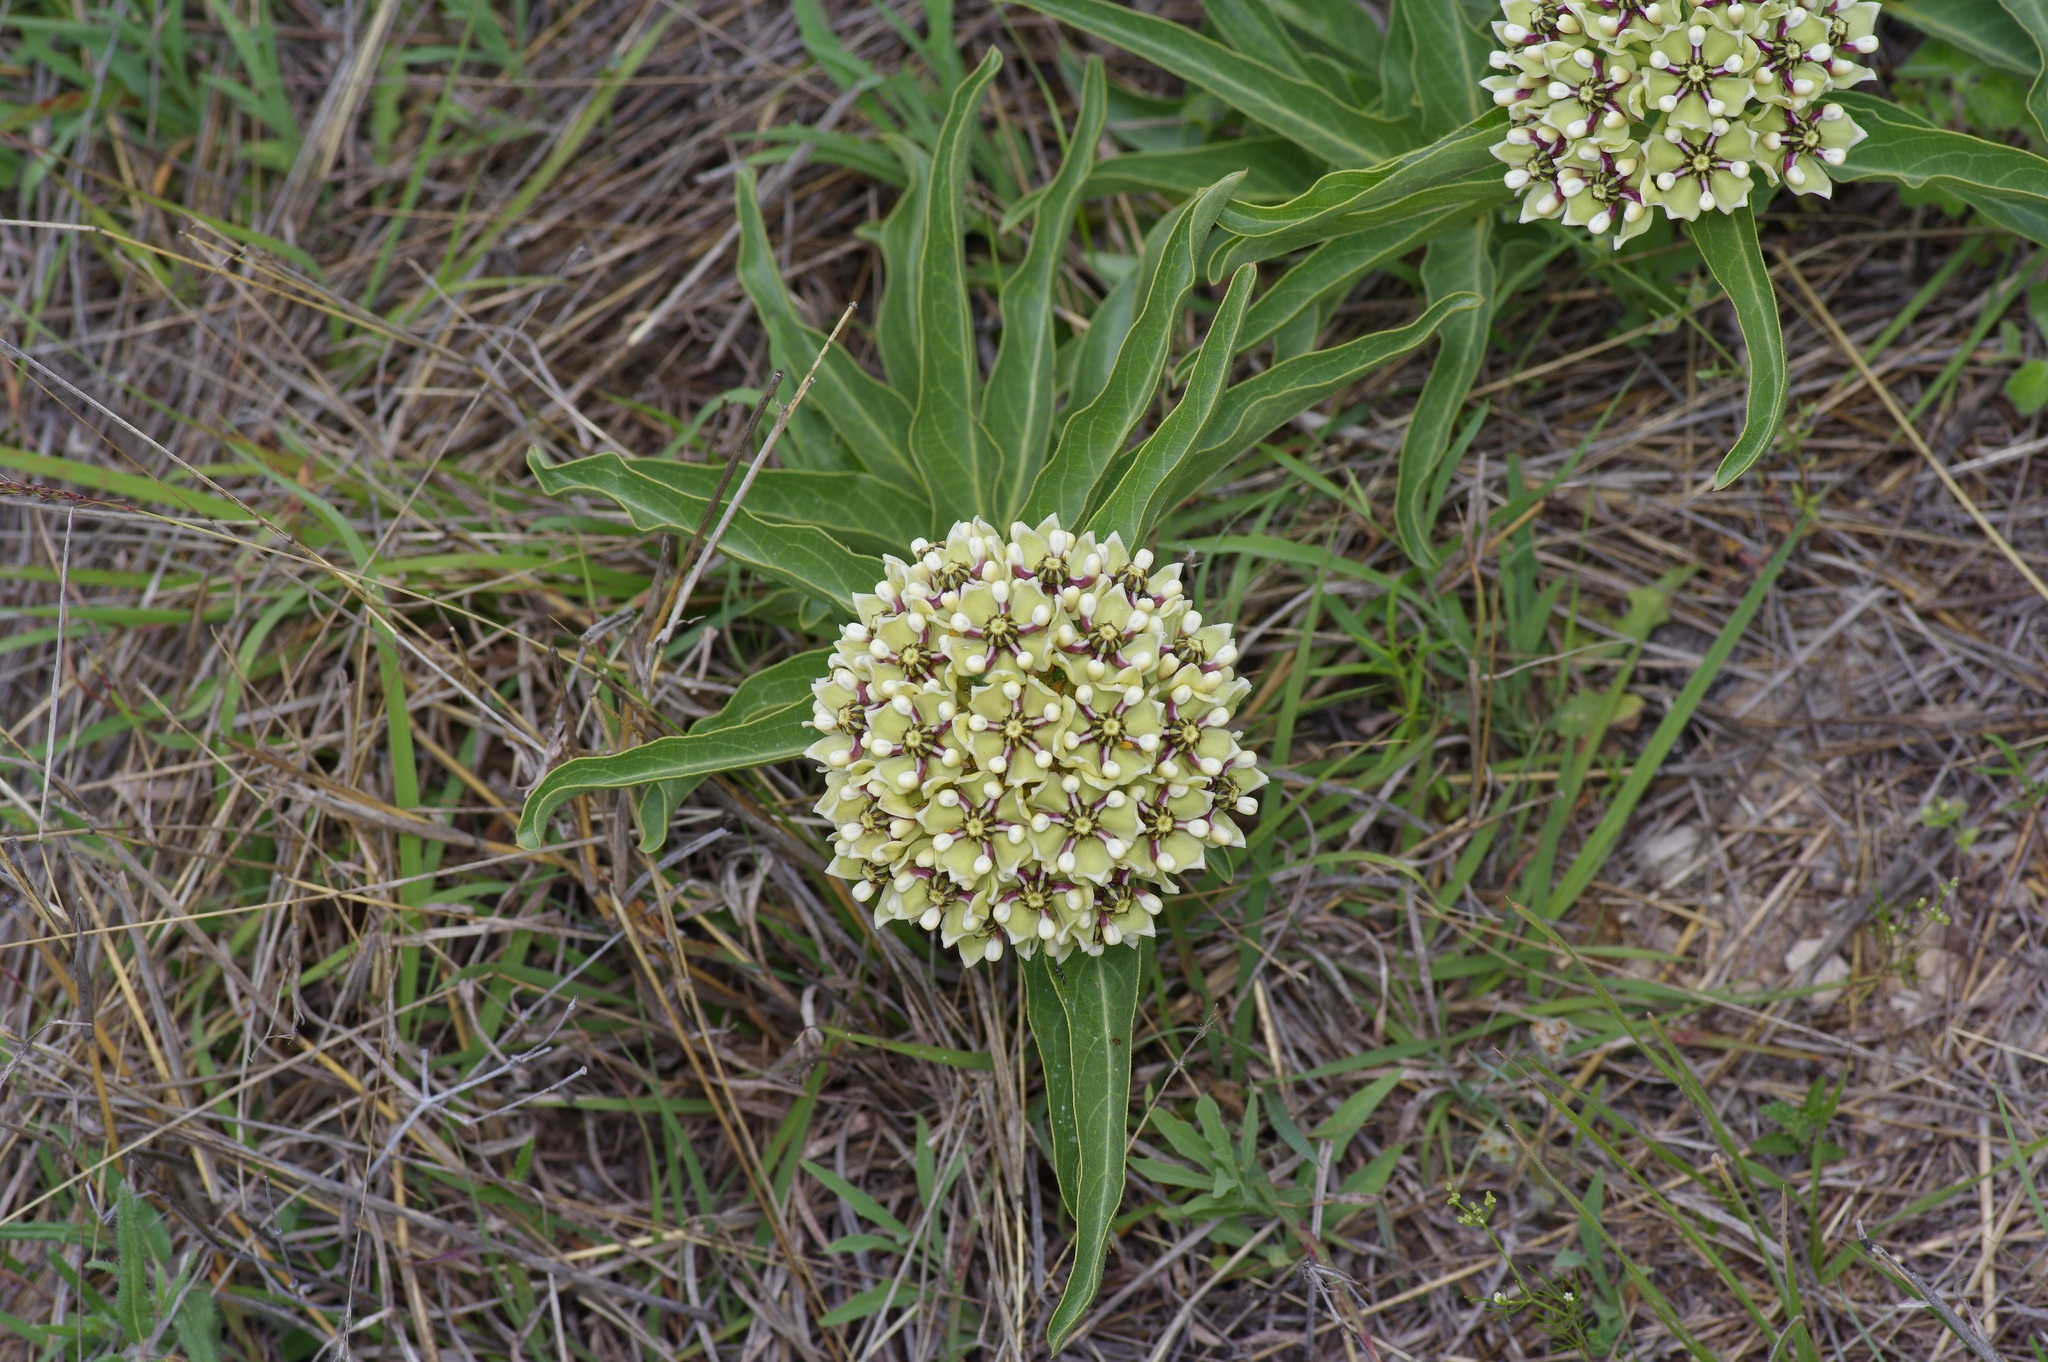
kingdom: Plantae
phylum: Tracheophyta
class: Magnoliopsida
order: Gentianales
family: Apocynaceae
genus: Asclepias
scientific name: Asclepias asperula
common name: Antelope horns
